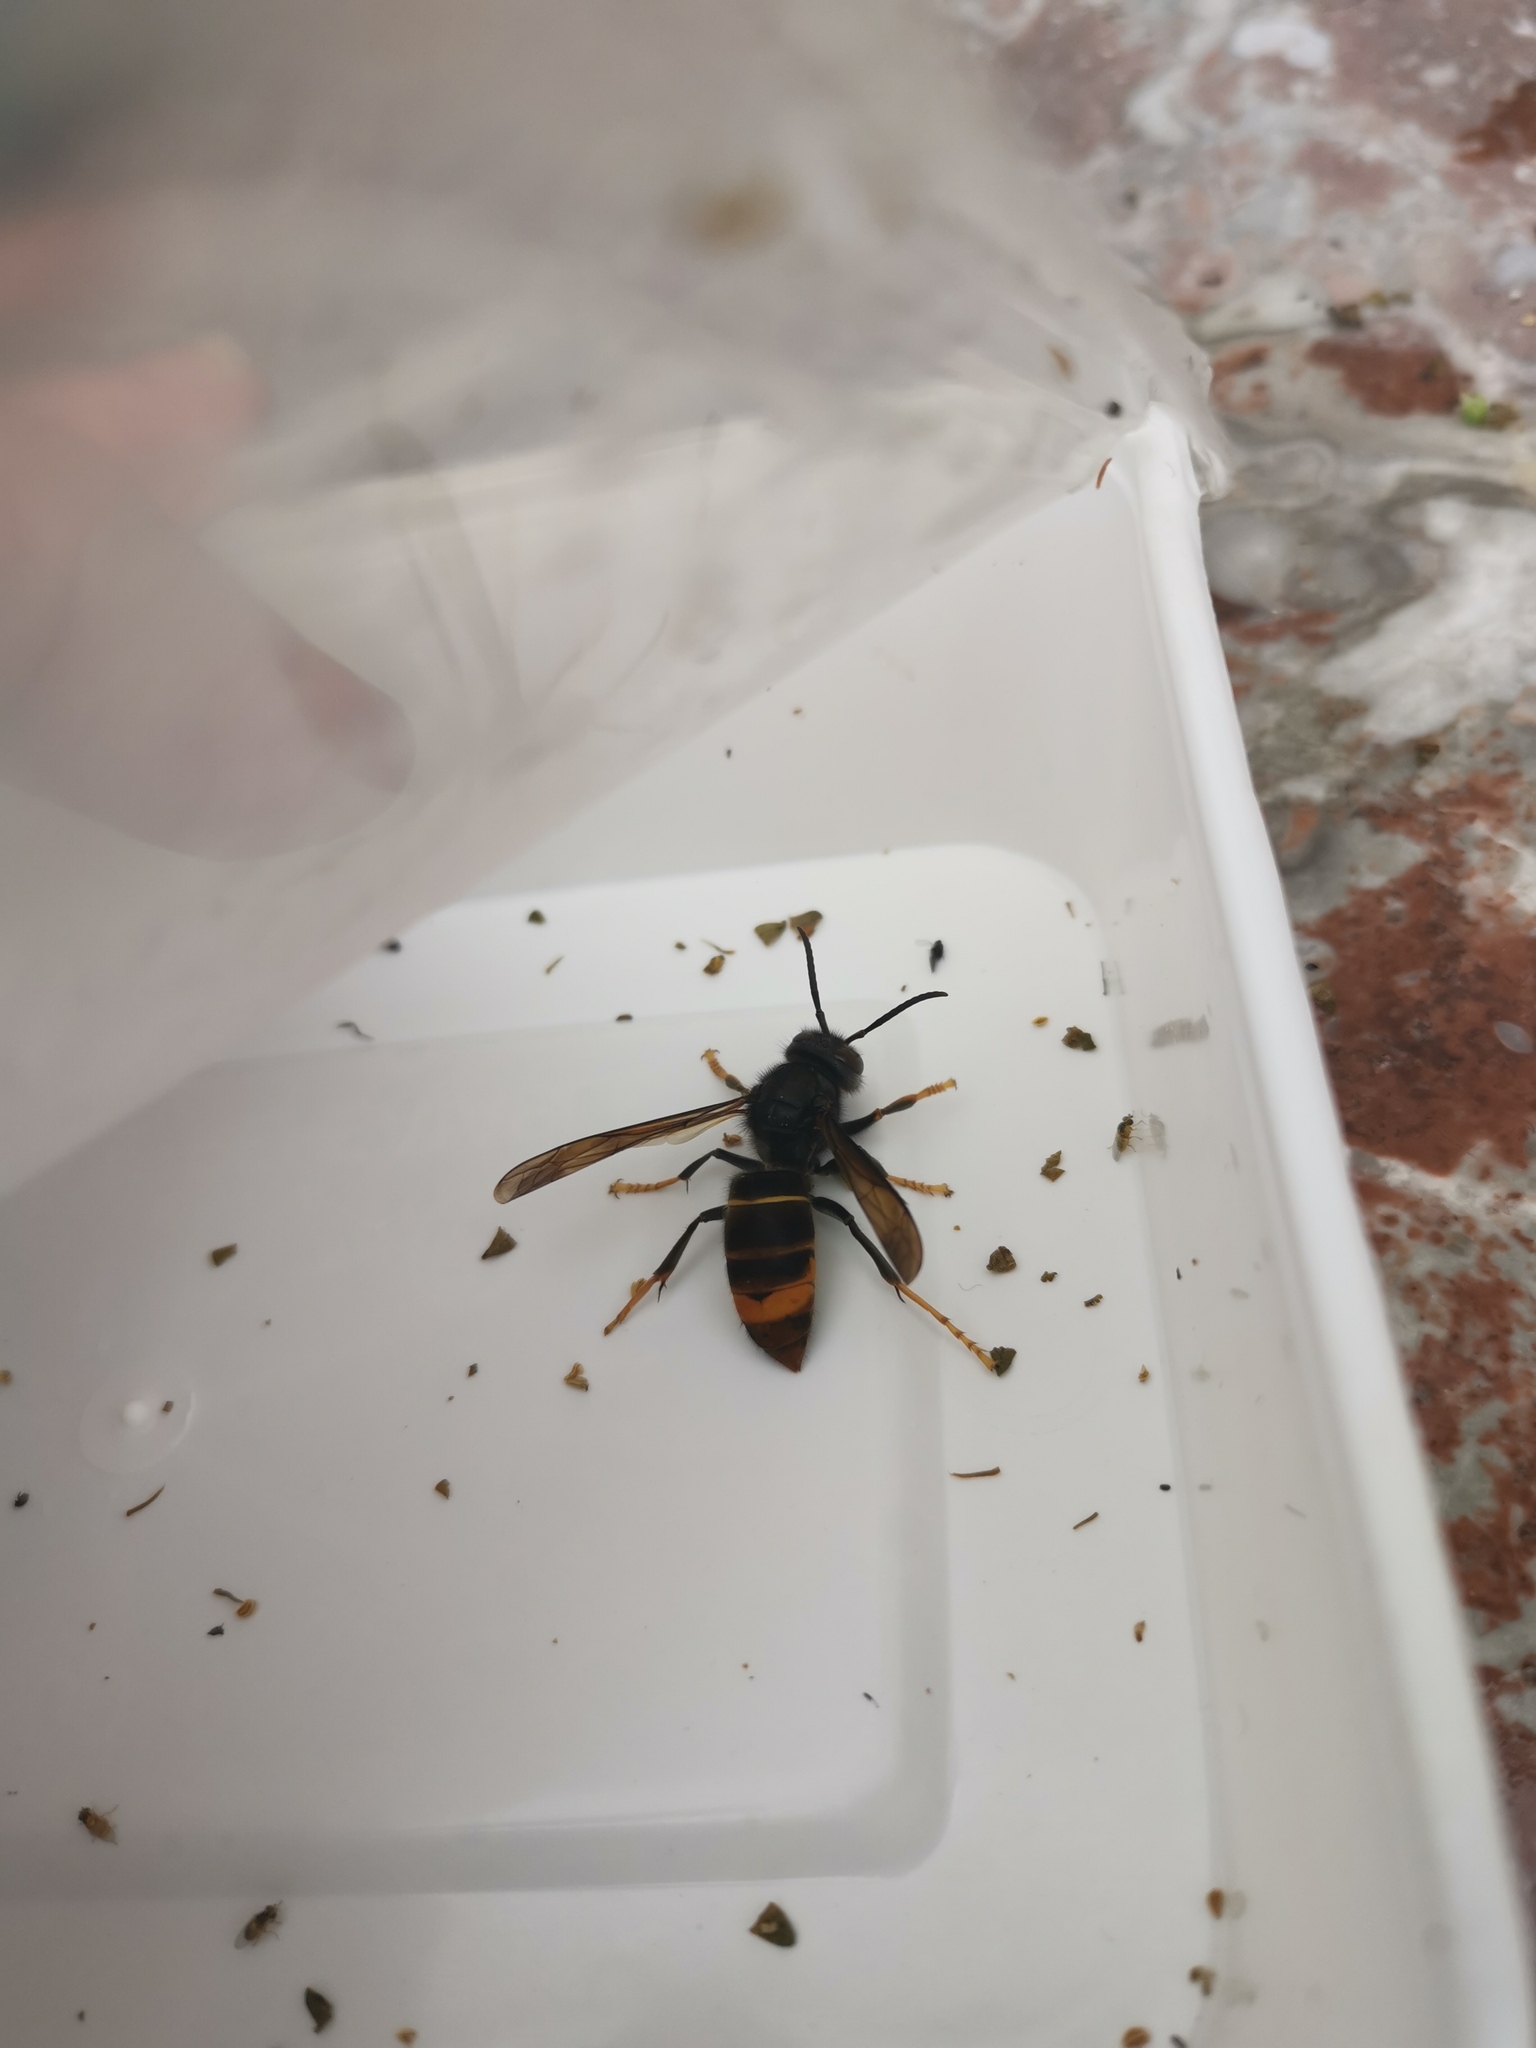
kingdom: Animalia
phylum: Arthropoda
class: Insecta
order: Hymenoptera
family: Vespidae
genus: Vespa
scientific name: Vespa velutina
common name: Asian hornet
